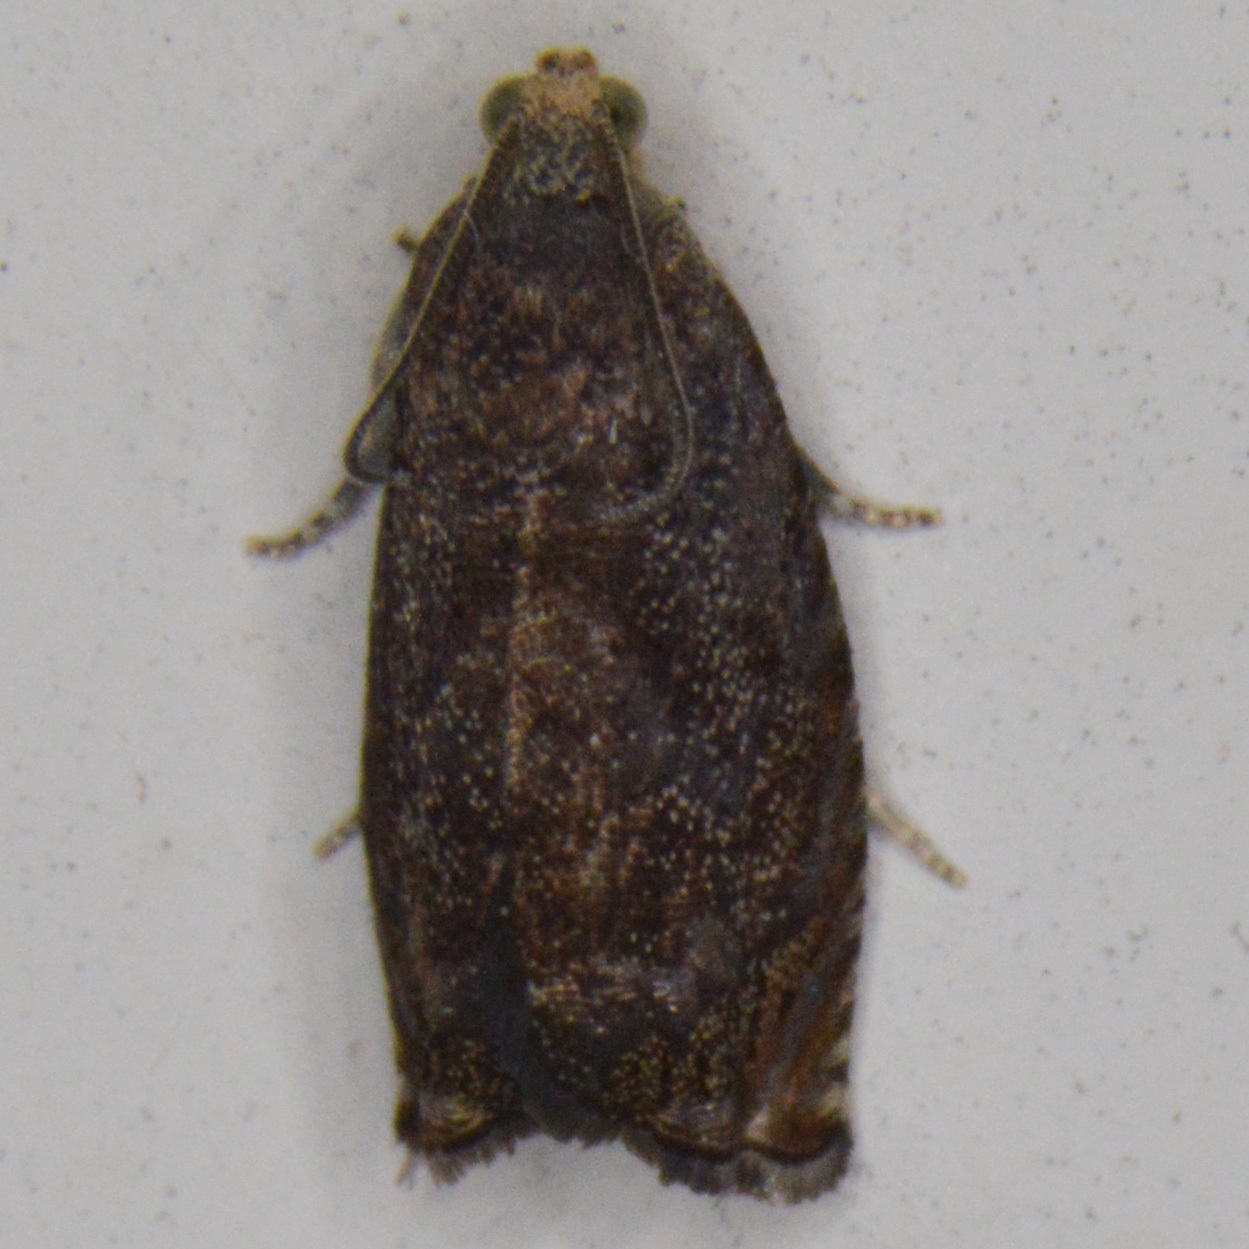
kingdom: Animalia
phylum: Arthropoda
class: Insecta
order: Lepidoptera
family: Tortricidae
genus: Cydia
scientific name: Cydia caryana
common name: Hickory shuckworm moth
